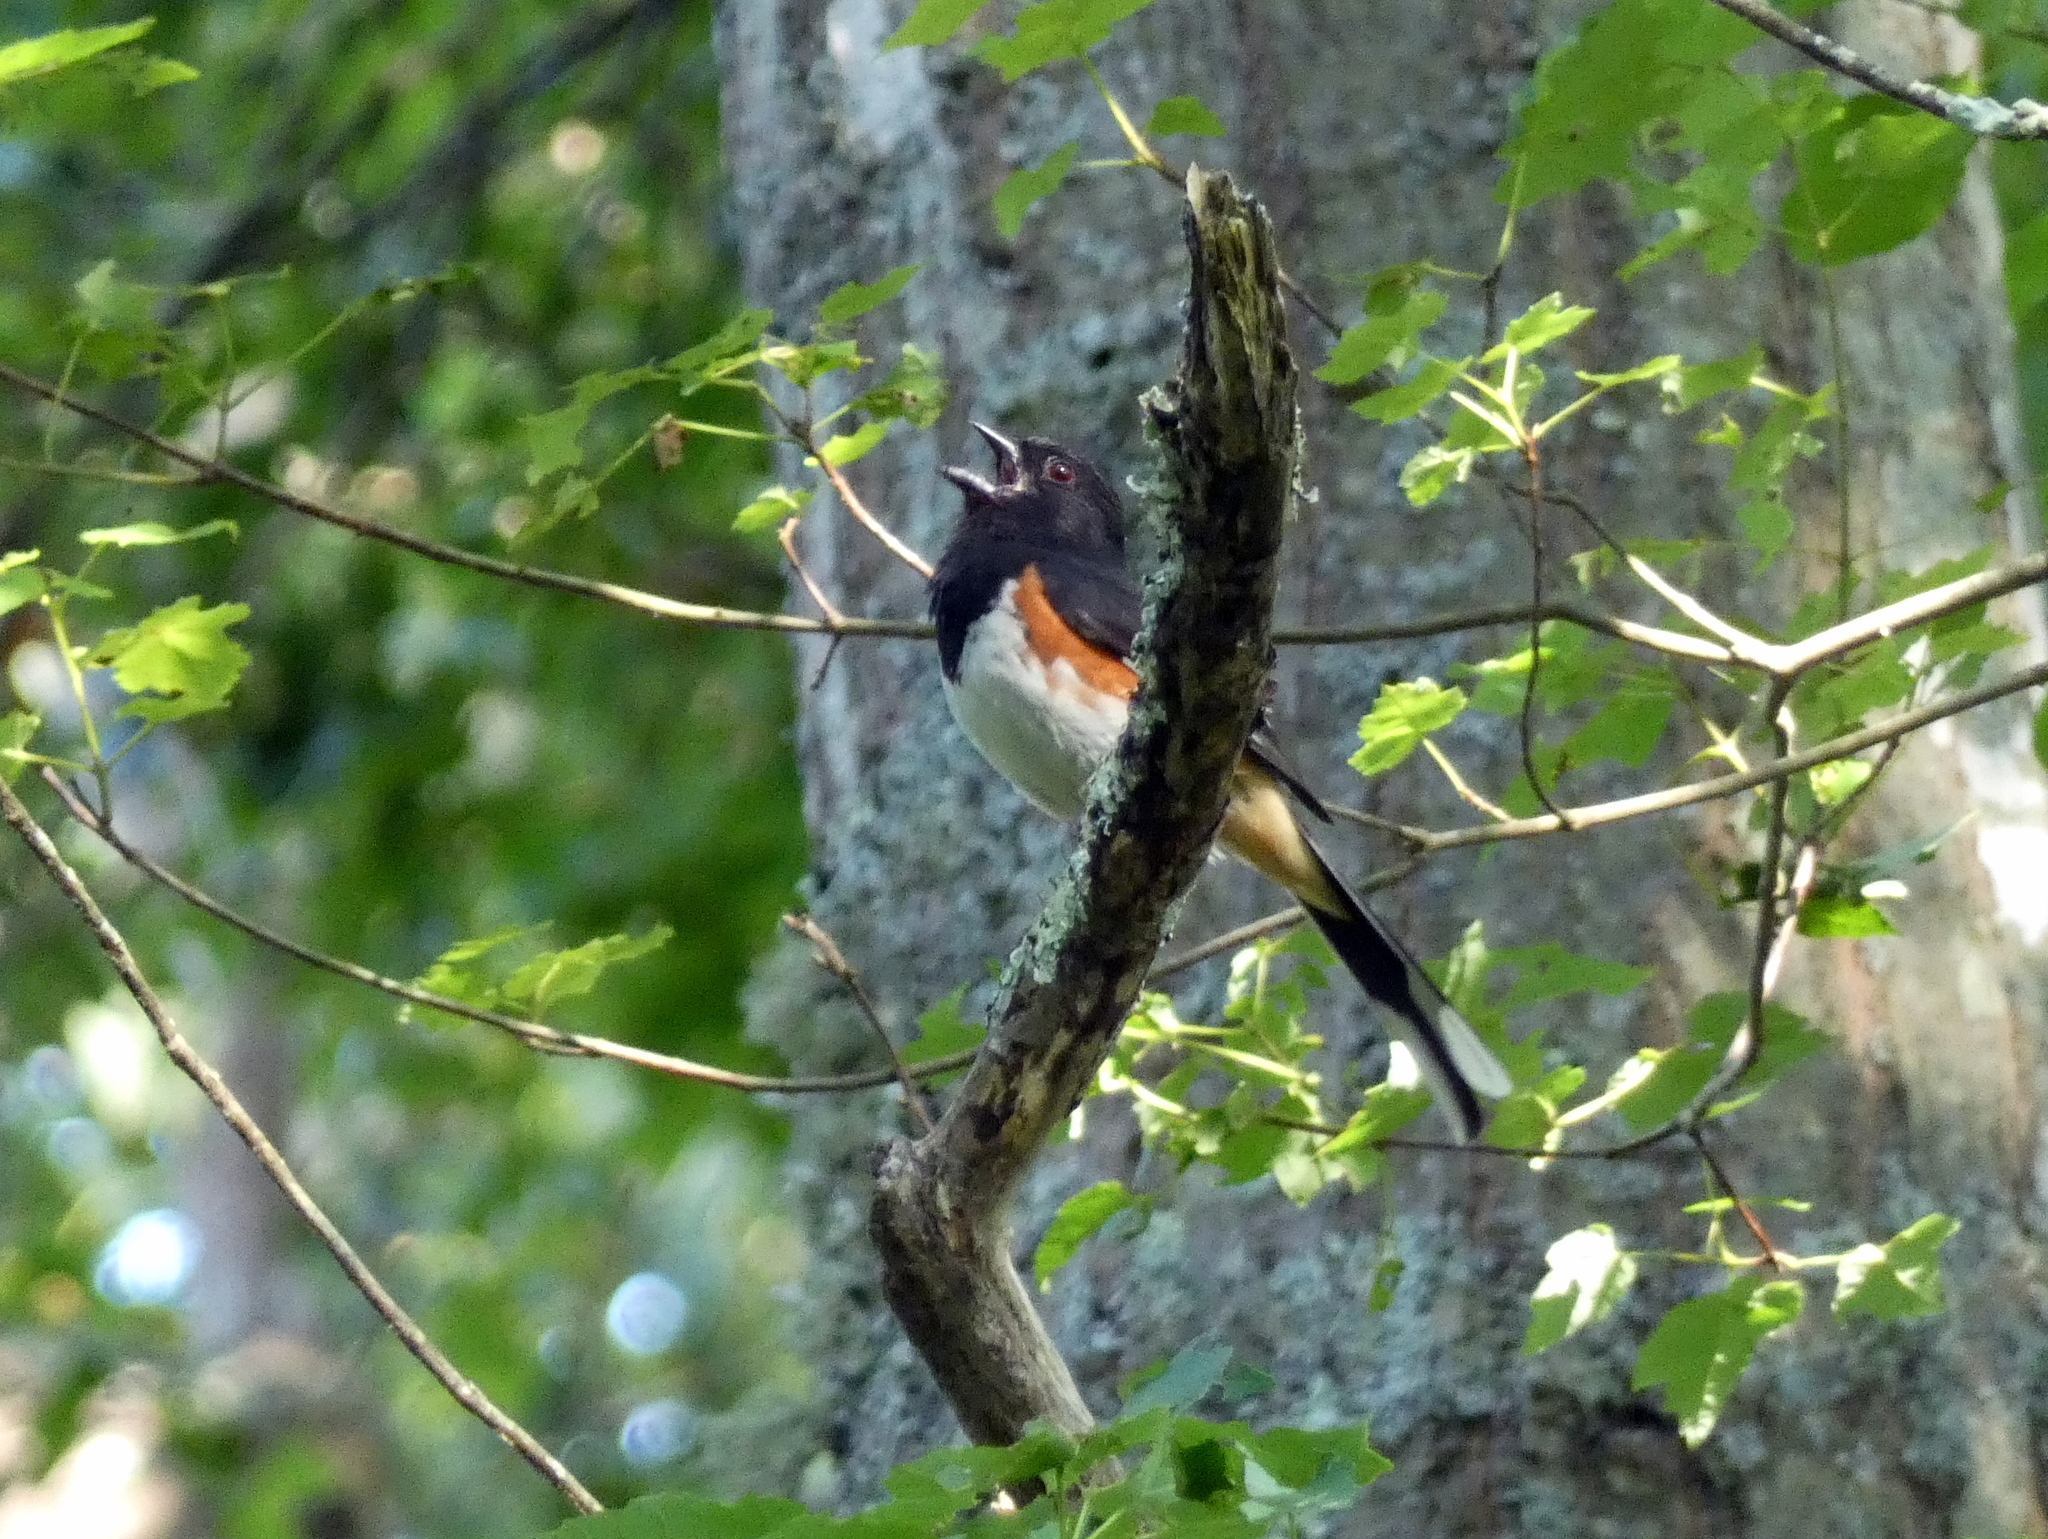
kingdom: Animalia
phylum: Chordata
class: Aves
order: Passeriformes
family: Passerellidae
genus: Pipilo
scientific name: Pipilo erythrophthalmus
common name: Eastern towhee
